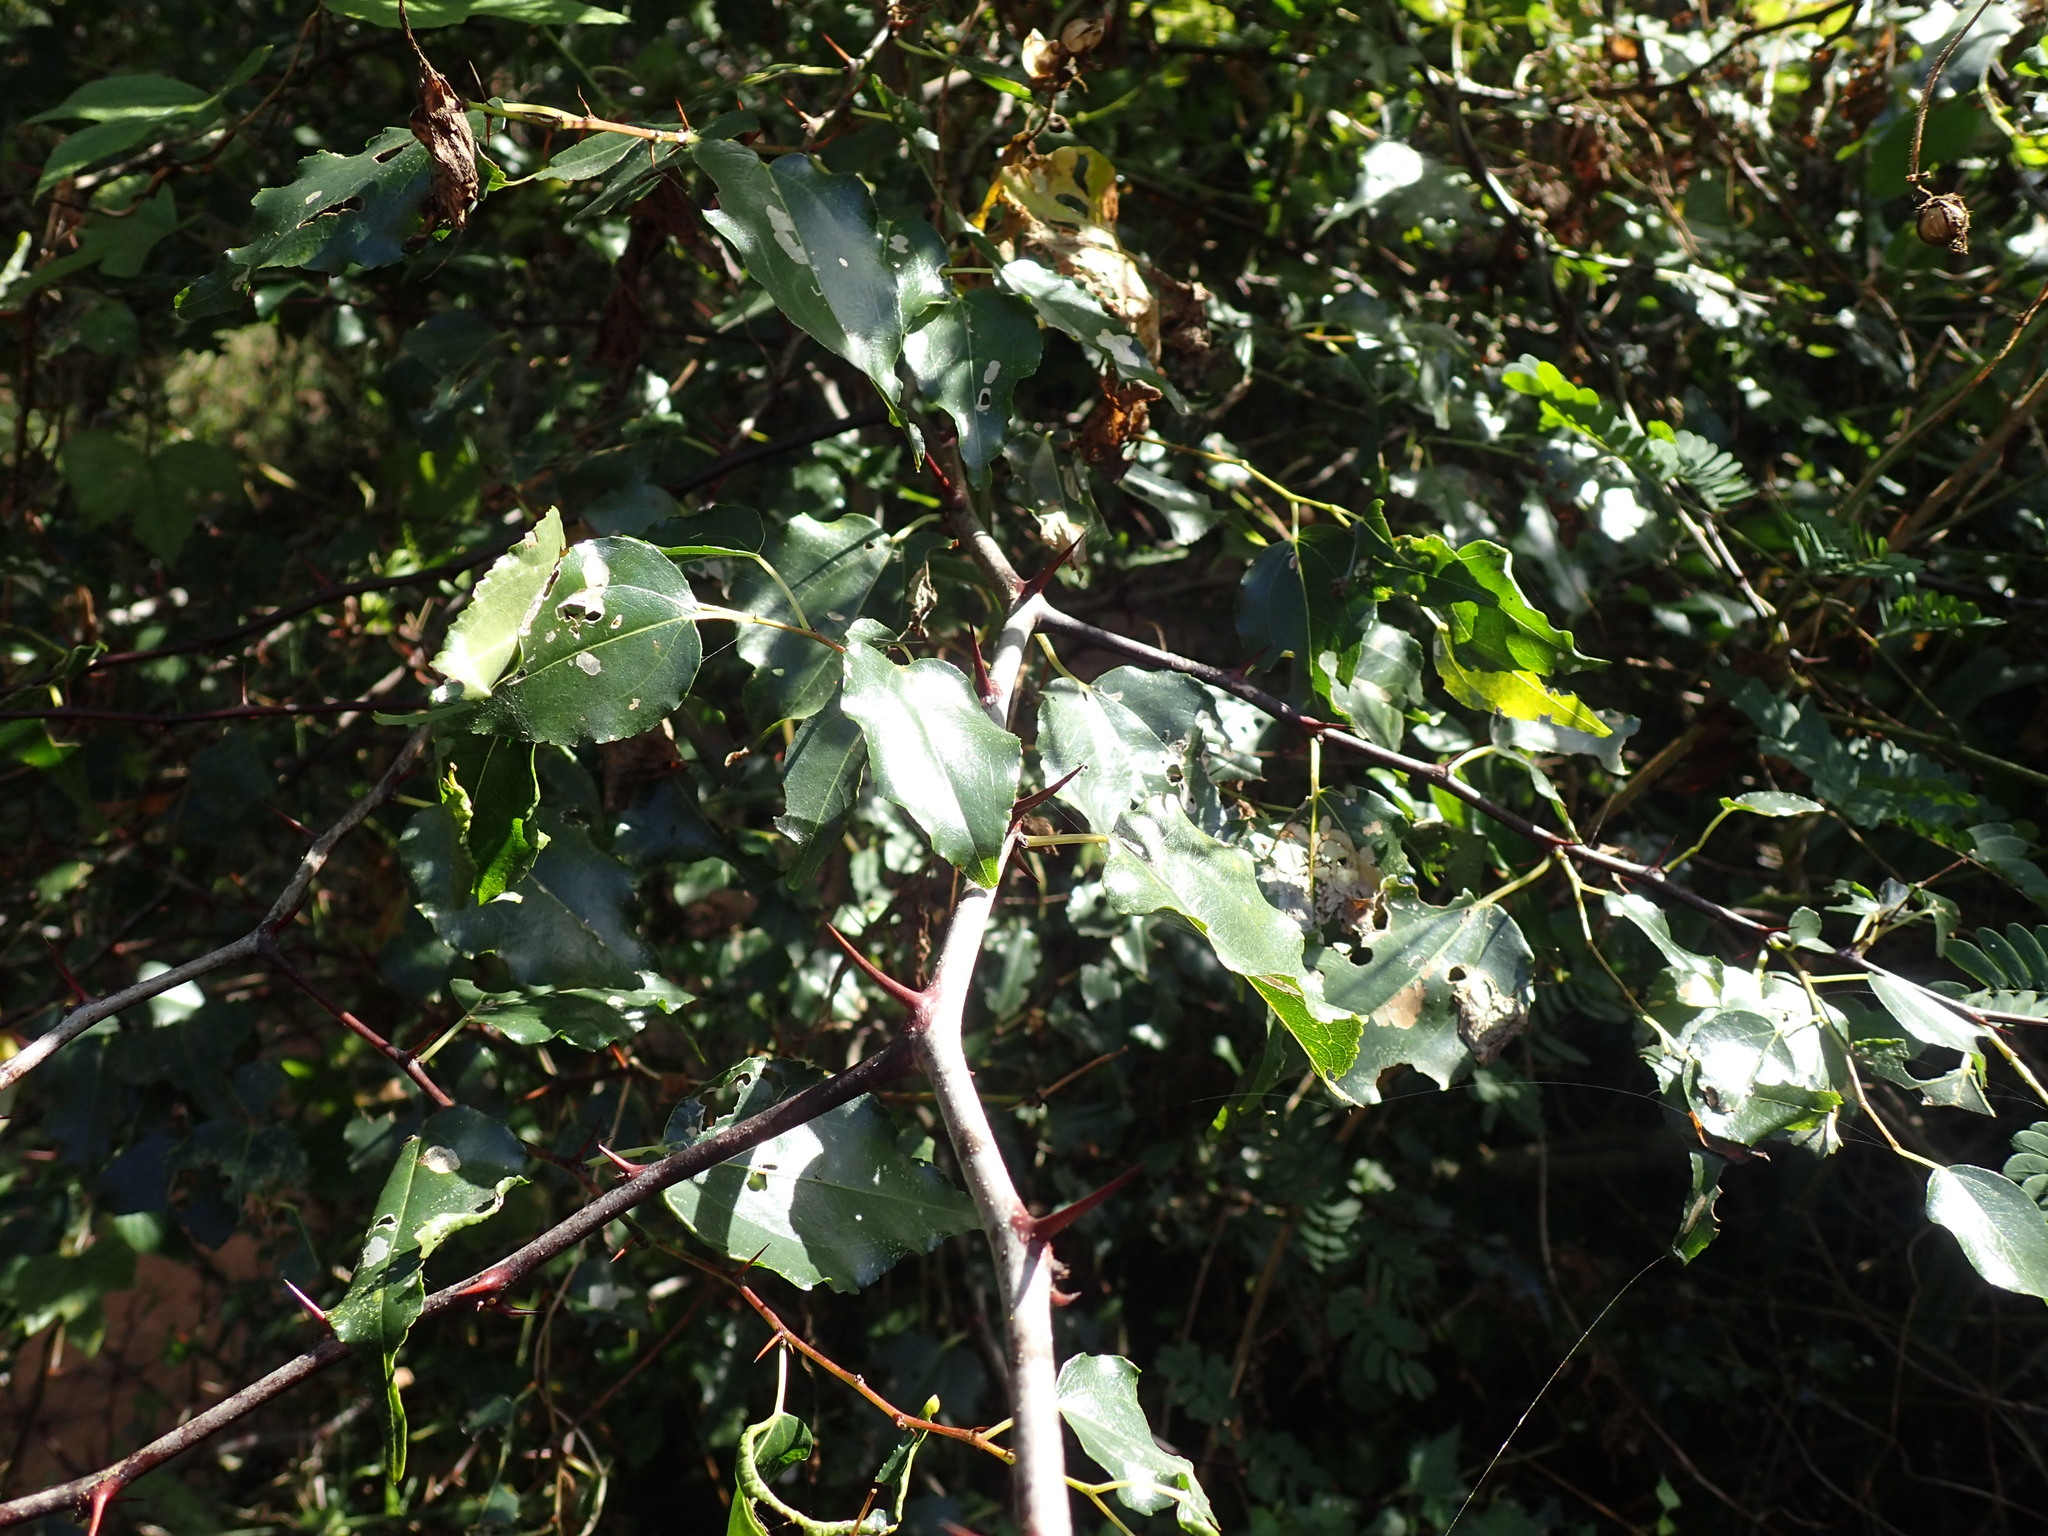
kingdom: Plantae
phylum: Tracheophyta
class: Magnoliopsida
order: Rosales
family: Rhamnaceae
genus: Ziziphus
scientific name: Ziziphus mucronata
